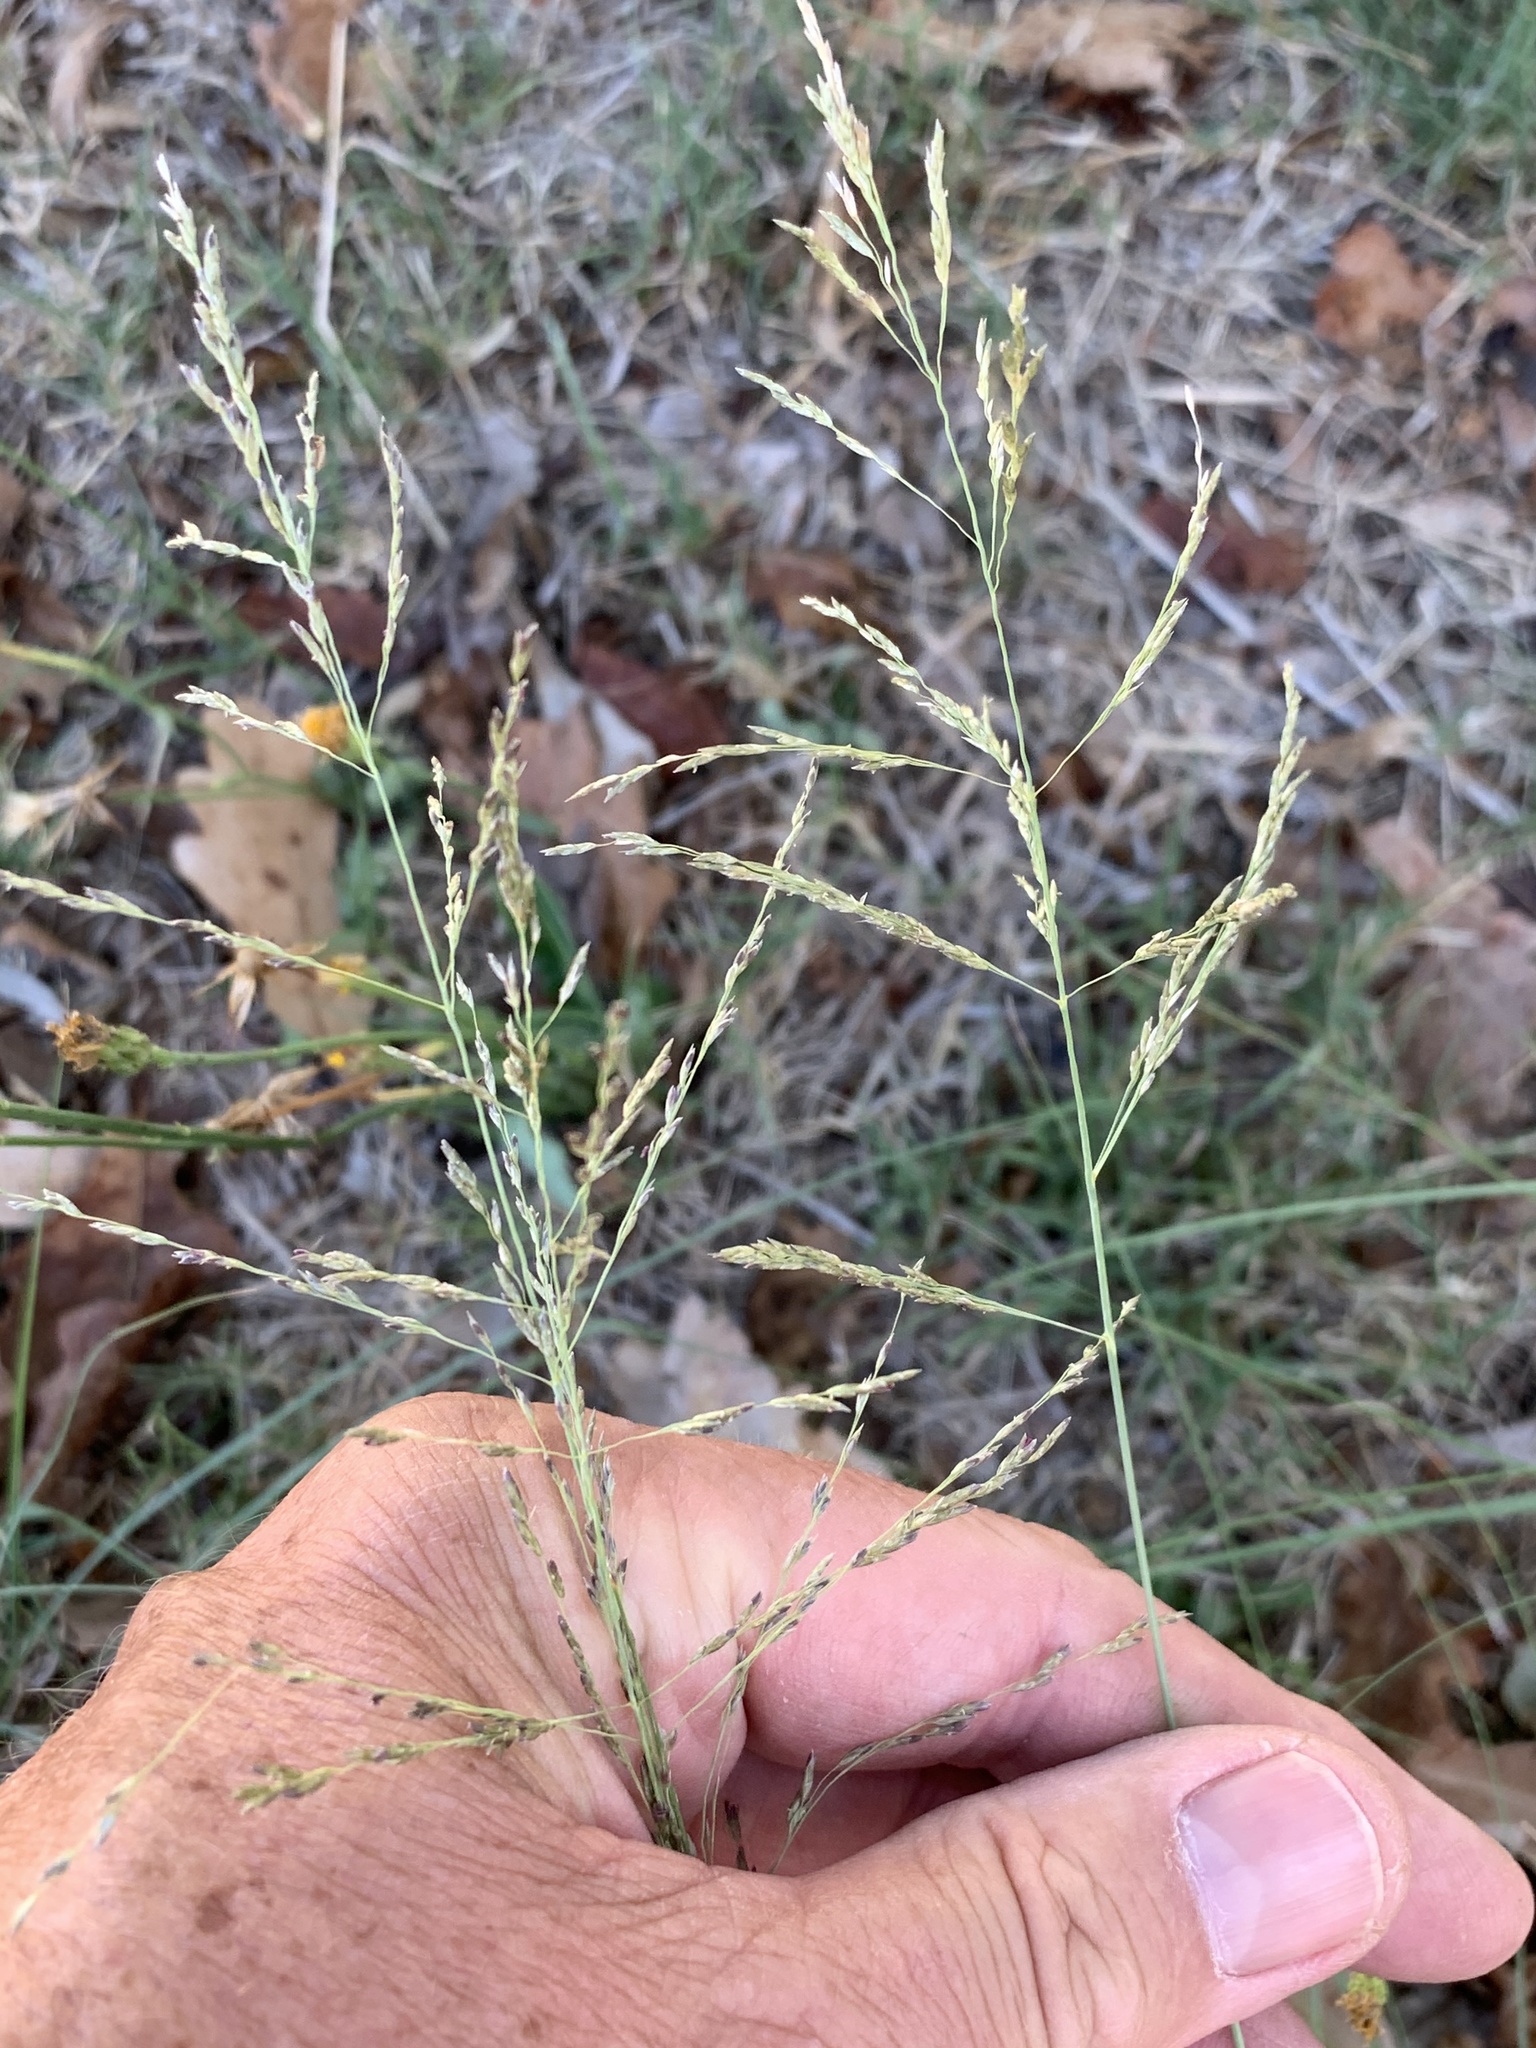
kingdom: Plantae
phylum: Tracheophyta
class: Liliopsida
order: Poales
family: Poaceae
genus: Eragrostis
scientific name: Eragrostis curvula
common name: African love-grass
